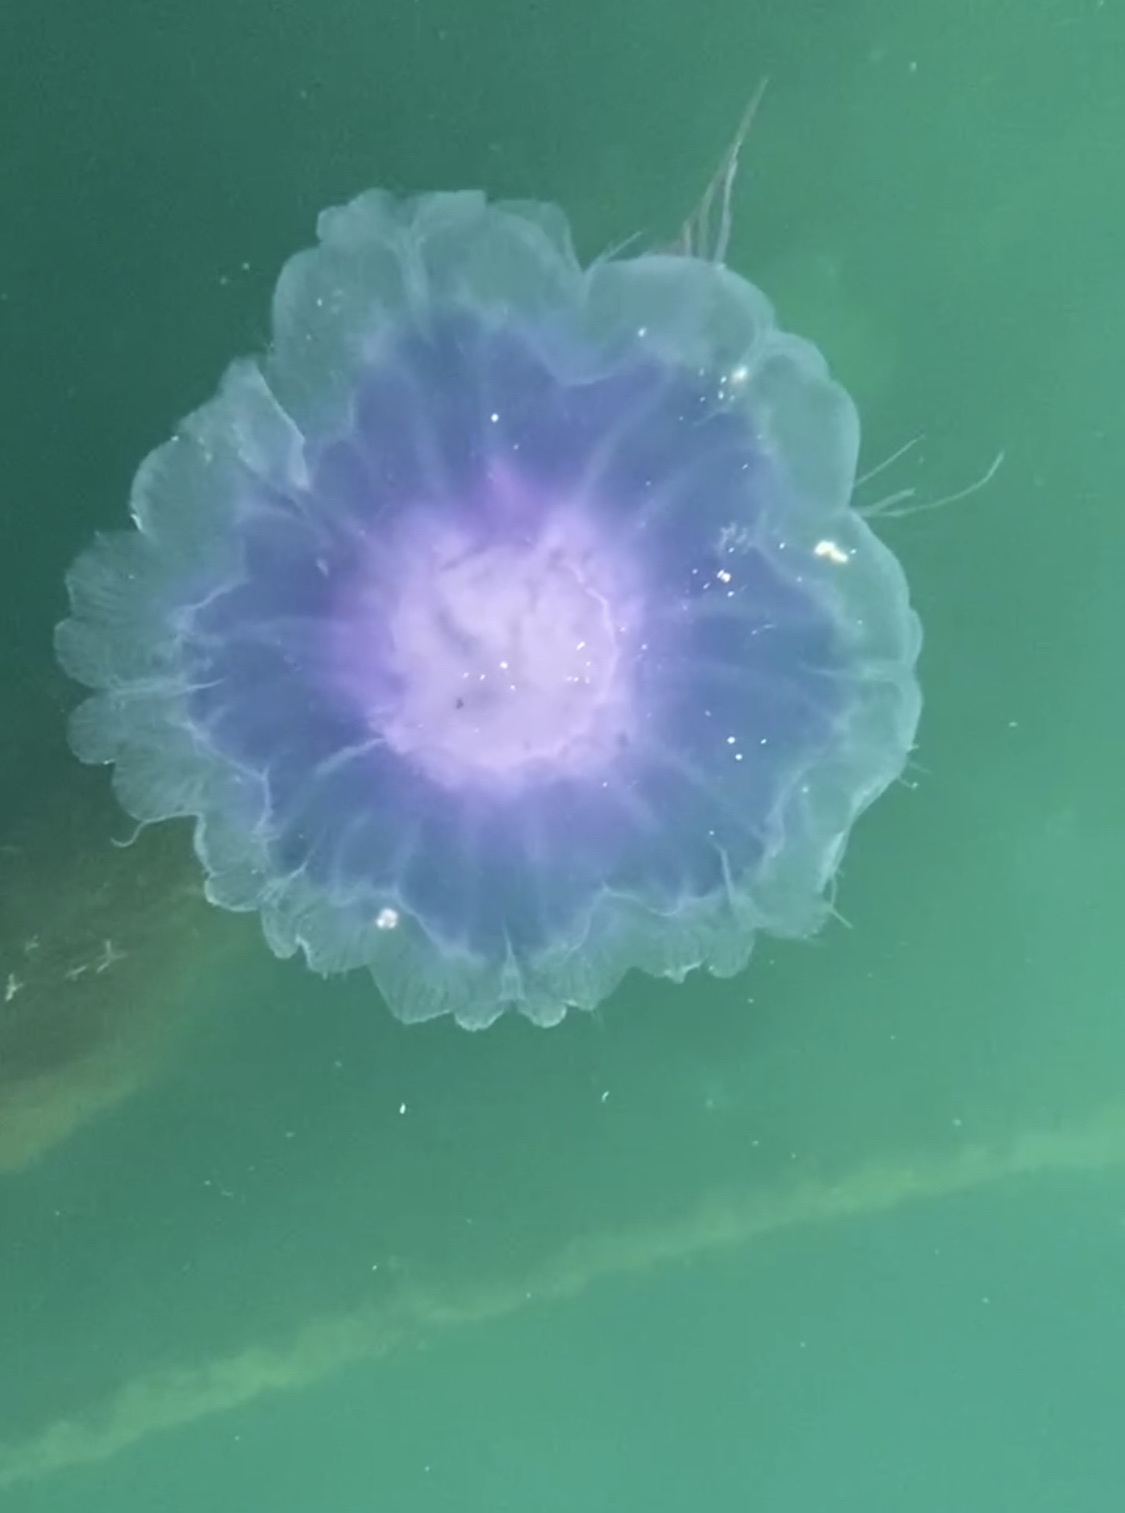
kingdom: Animalia
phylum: Cnidaria
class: Scyphozoa
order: Semaeostomeae
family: Cyaneidae
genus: Cyanea
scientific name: Cyanea lamarckii
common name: Blue jellyfish
